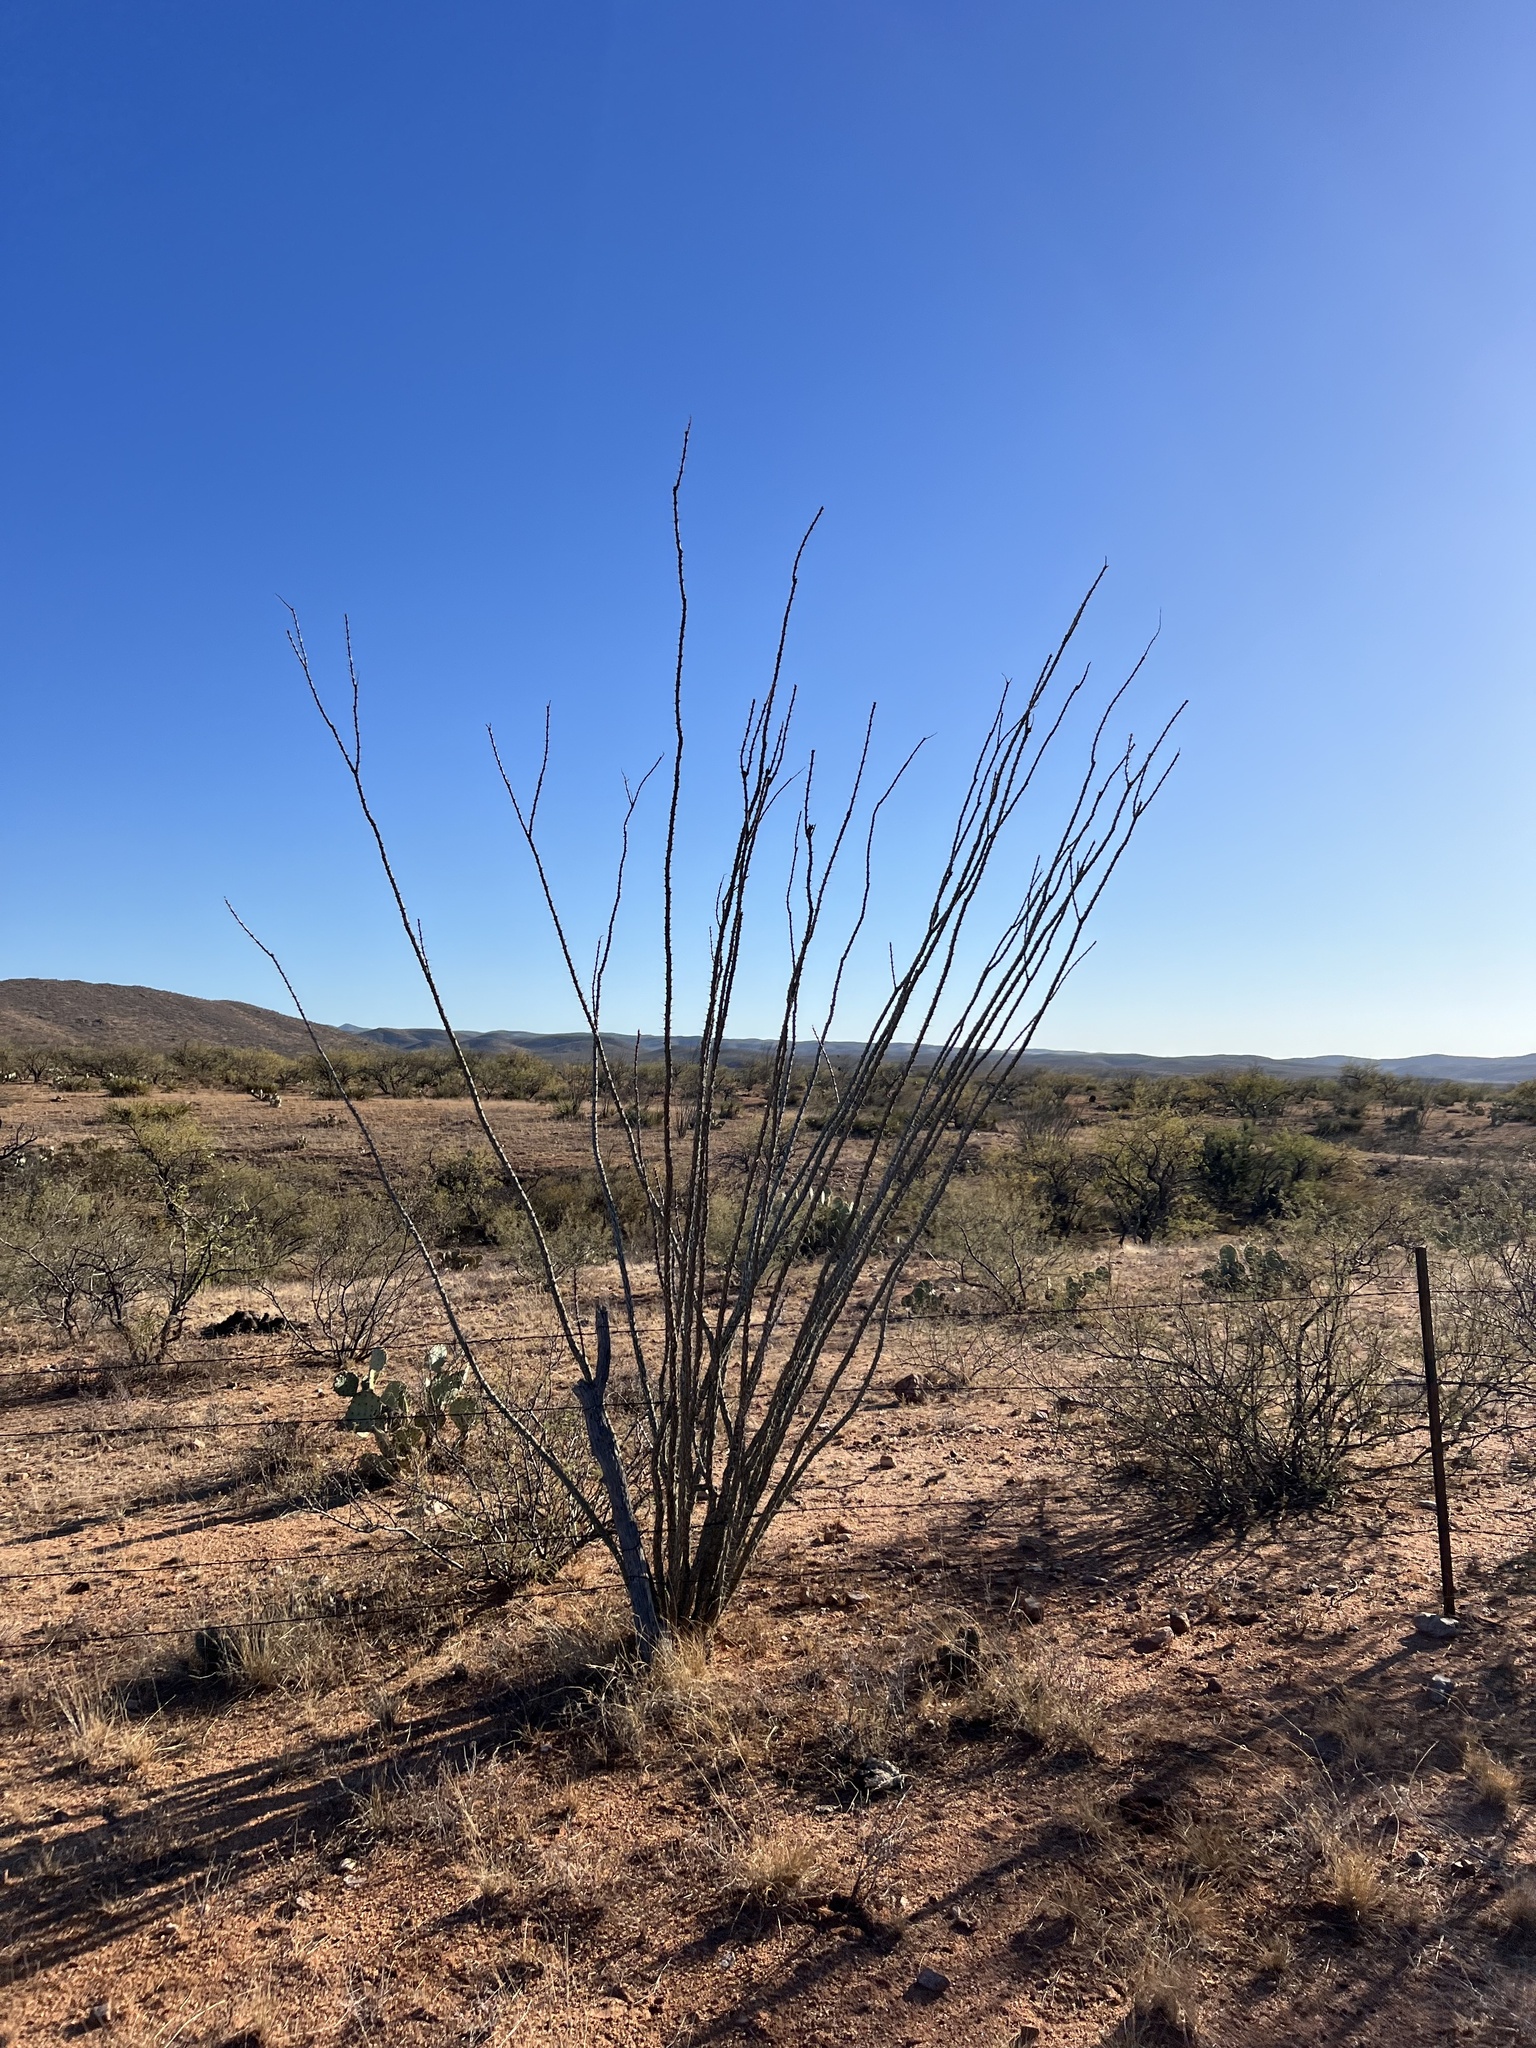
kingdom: Plantae
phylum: Tracheophyta
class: Magnoliopsida
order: Ericales
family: Fouquieriaceae
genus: Fouquieria
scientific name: Fouquieria splendens
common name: Vine-cactus
